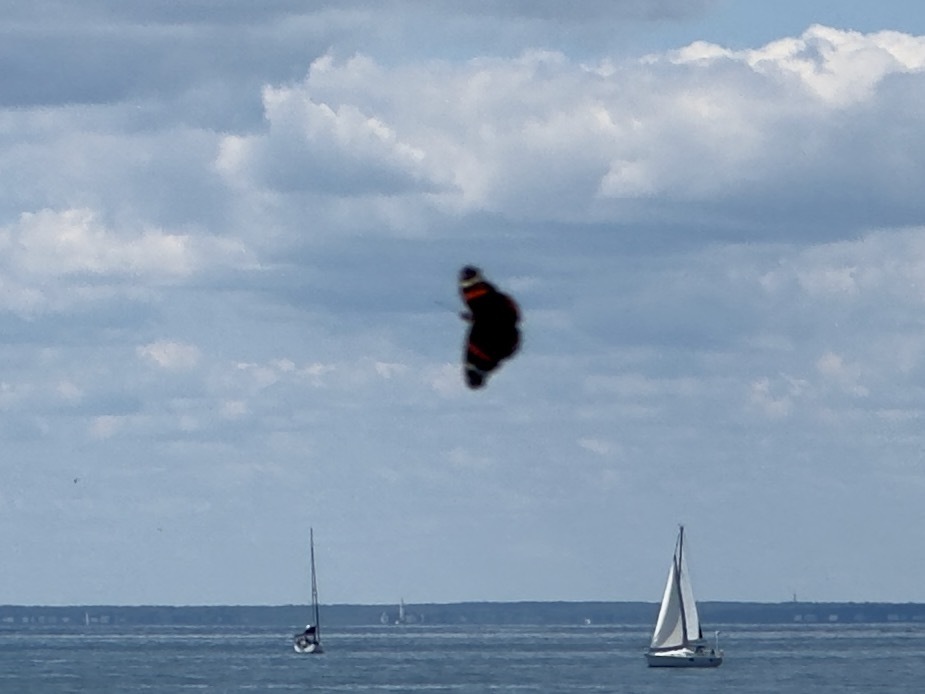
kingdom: Animalia
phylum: Arthropoda
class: Insecta
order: Lepidoptera
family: Nymphalidae
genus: Vanessa
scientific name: Vanessa atalanta
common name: Red admiral
